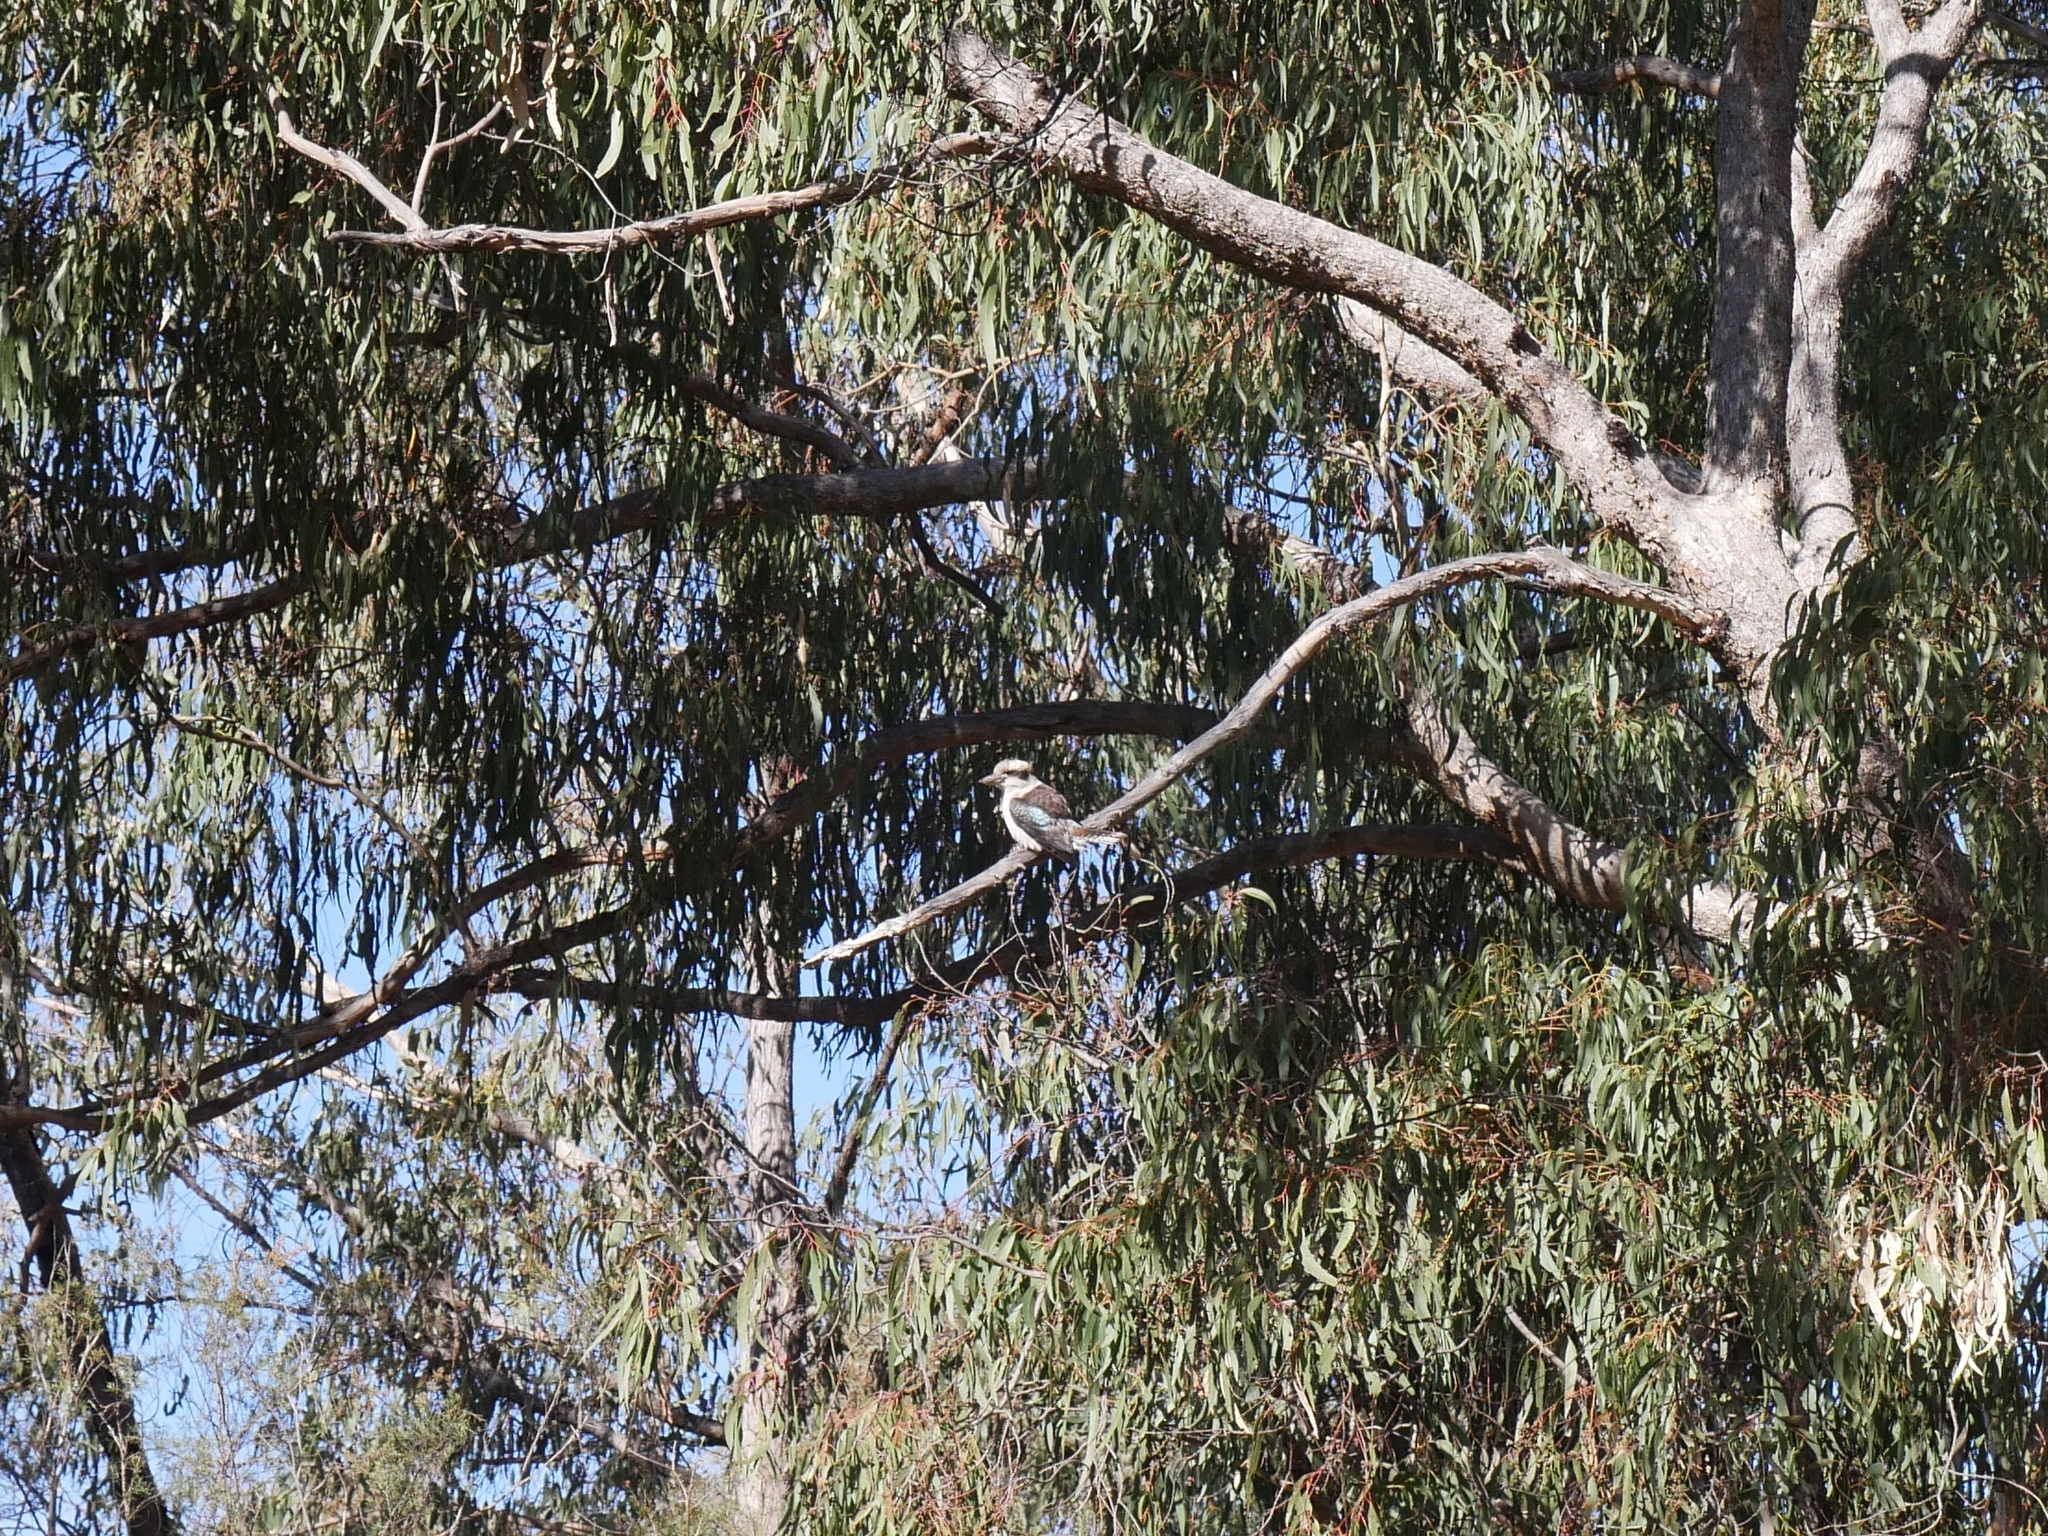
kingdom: Animalia
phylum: Chordata
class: Aves
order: Coraciiformes
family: Alcedinidae
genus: Dacelo
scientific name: Dacelo novaeguineae
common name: Laughing kookaburra
